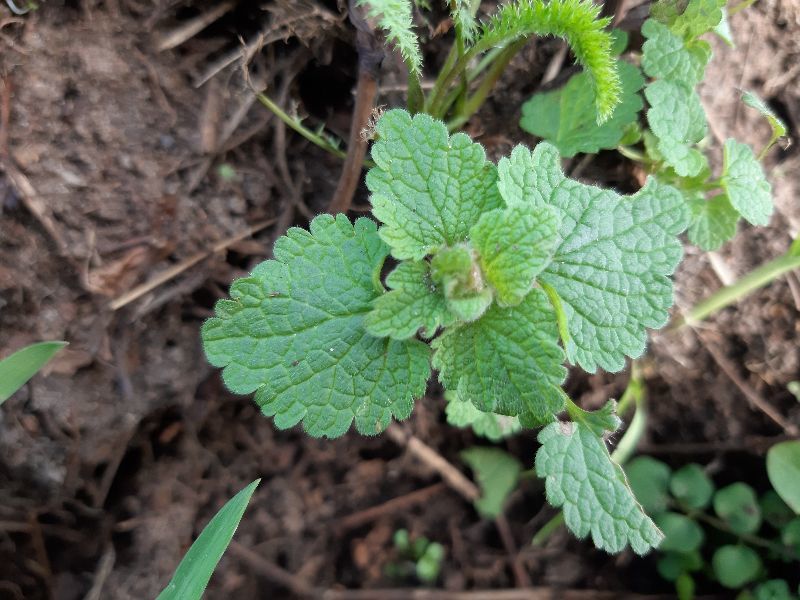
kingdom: Plantae
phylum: Tracheophyta
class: Magnoliopsida
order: Lamiales
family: Lamiaceae
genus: Lamium
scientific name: Lamium purpureum
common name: Red dead-nettle
